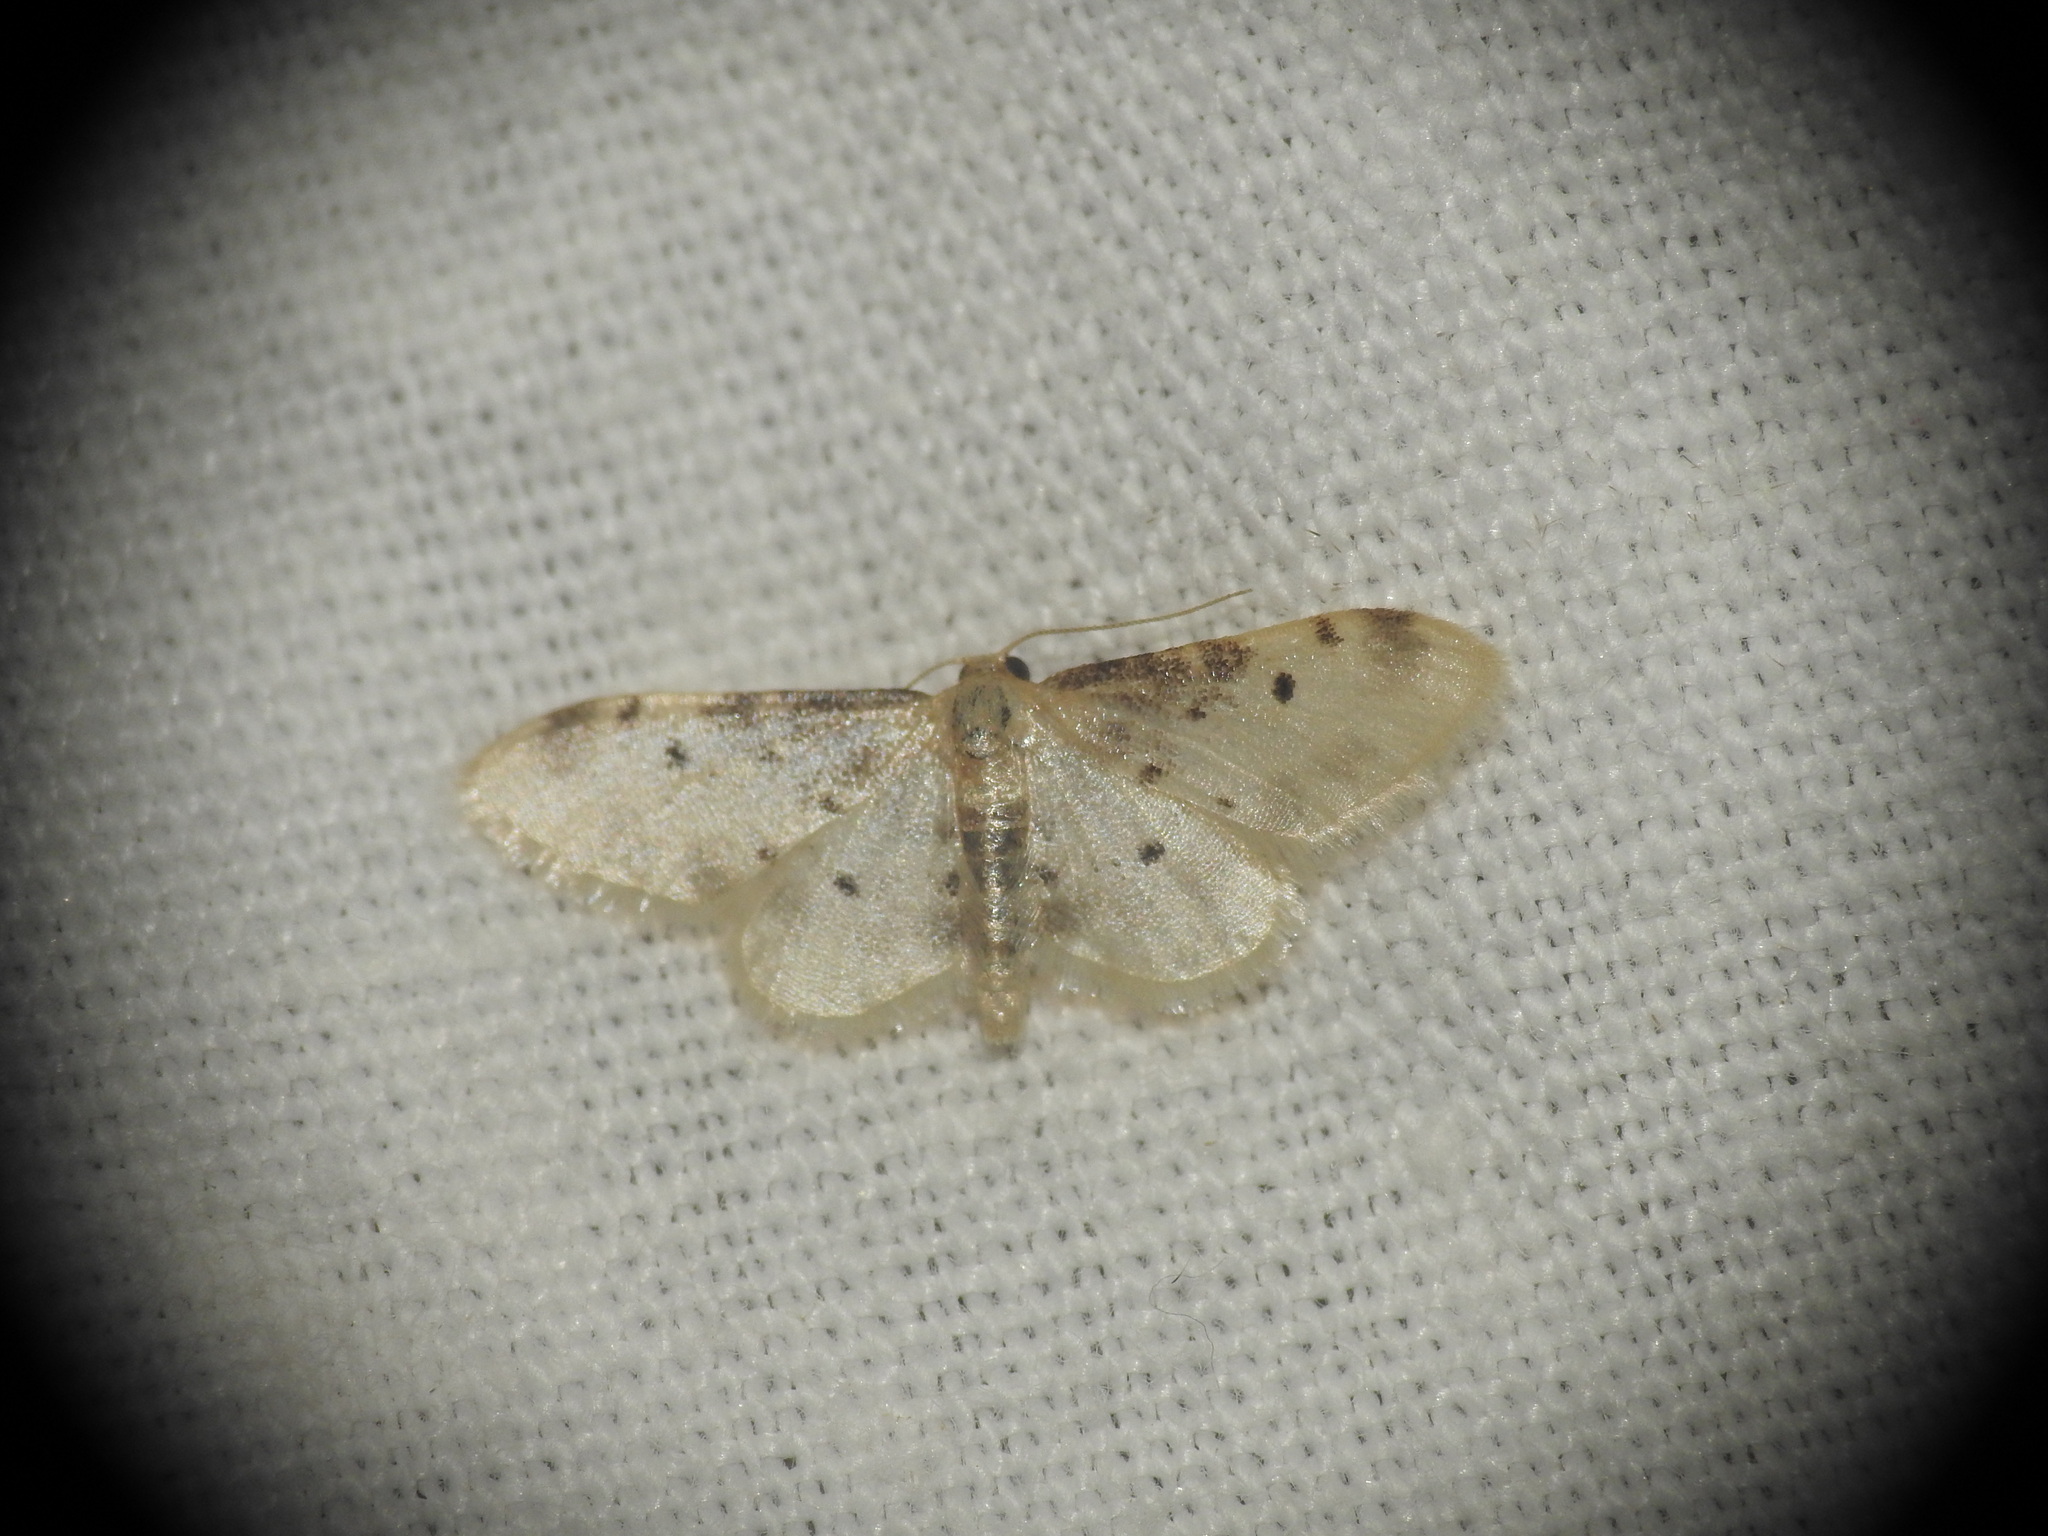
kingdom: Animalia
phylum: Arthropoda
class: Insecta
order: Lepidoptera
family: Geometridae
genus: Idaea
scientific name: Idaea filicata
